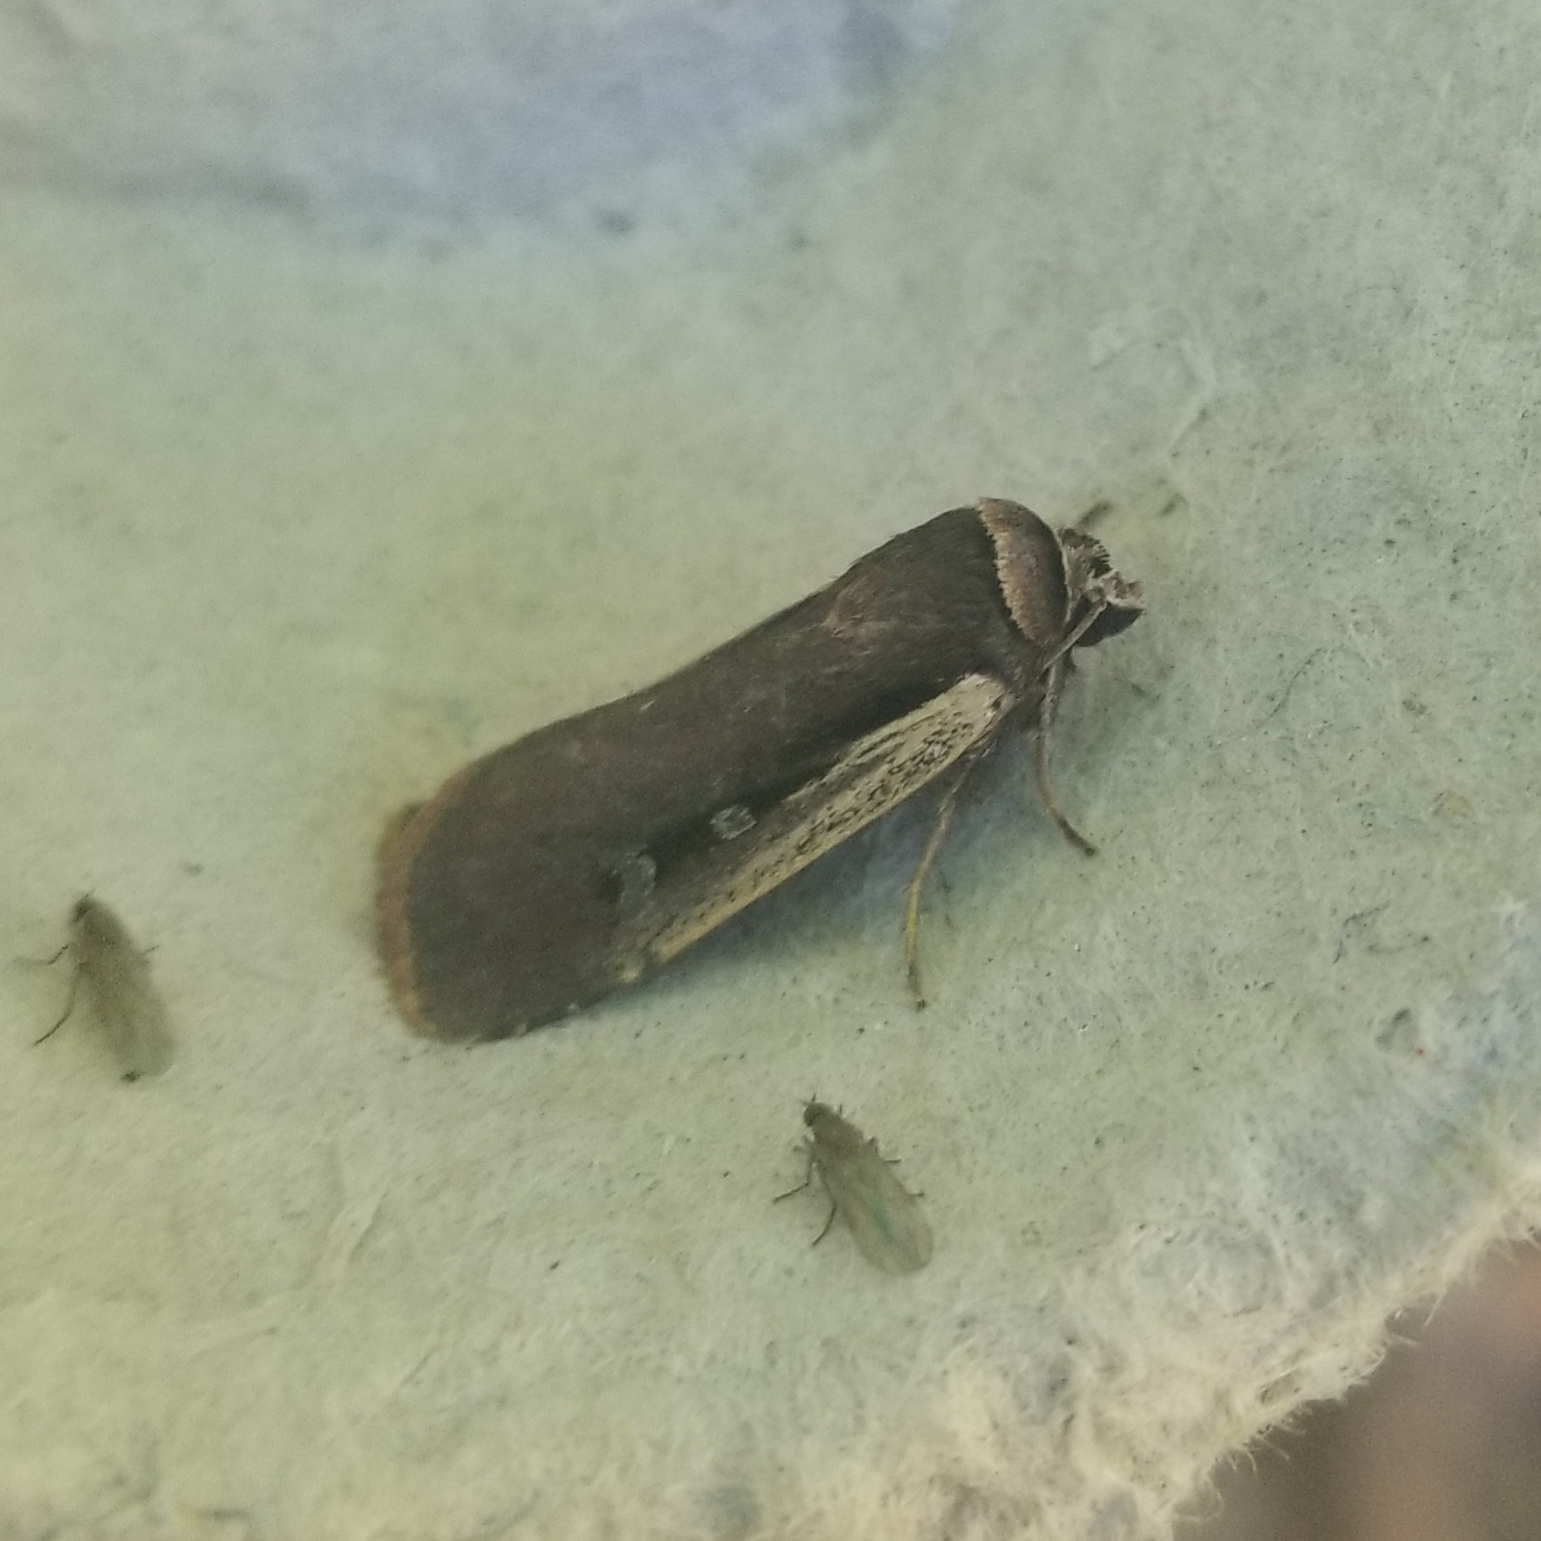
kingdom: Animalia
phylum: Arthropoda
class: Insecta
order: Lepidoptera
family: Noctuidae
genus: Ochropleura
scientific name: Ochropleura implecta
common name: Flame-shouldered dart
